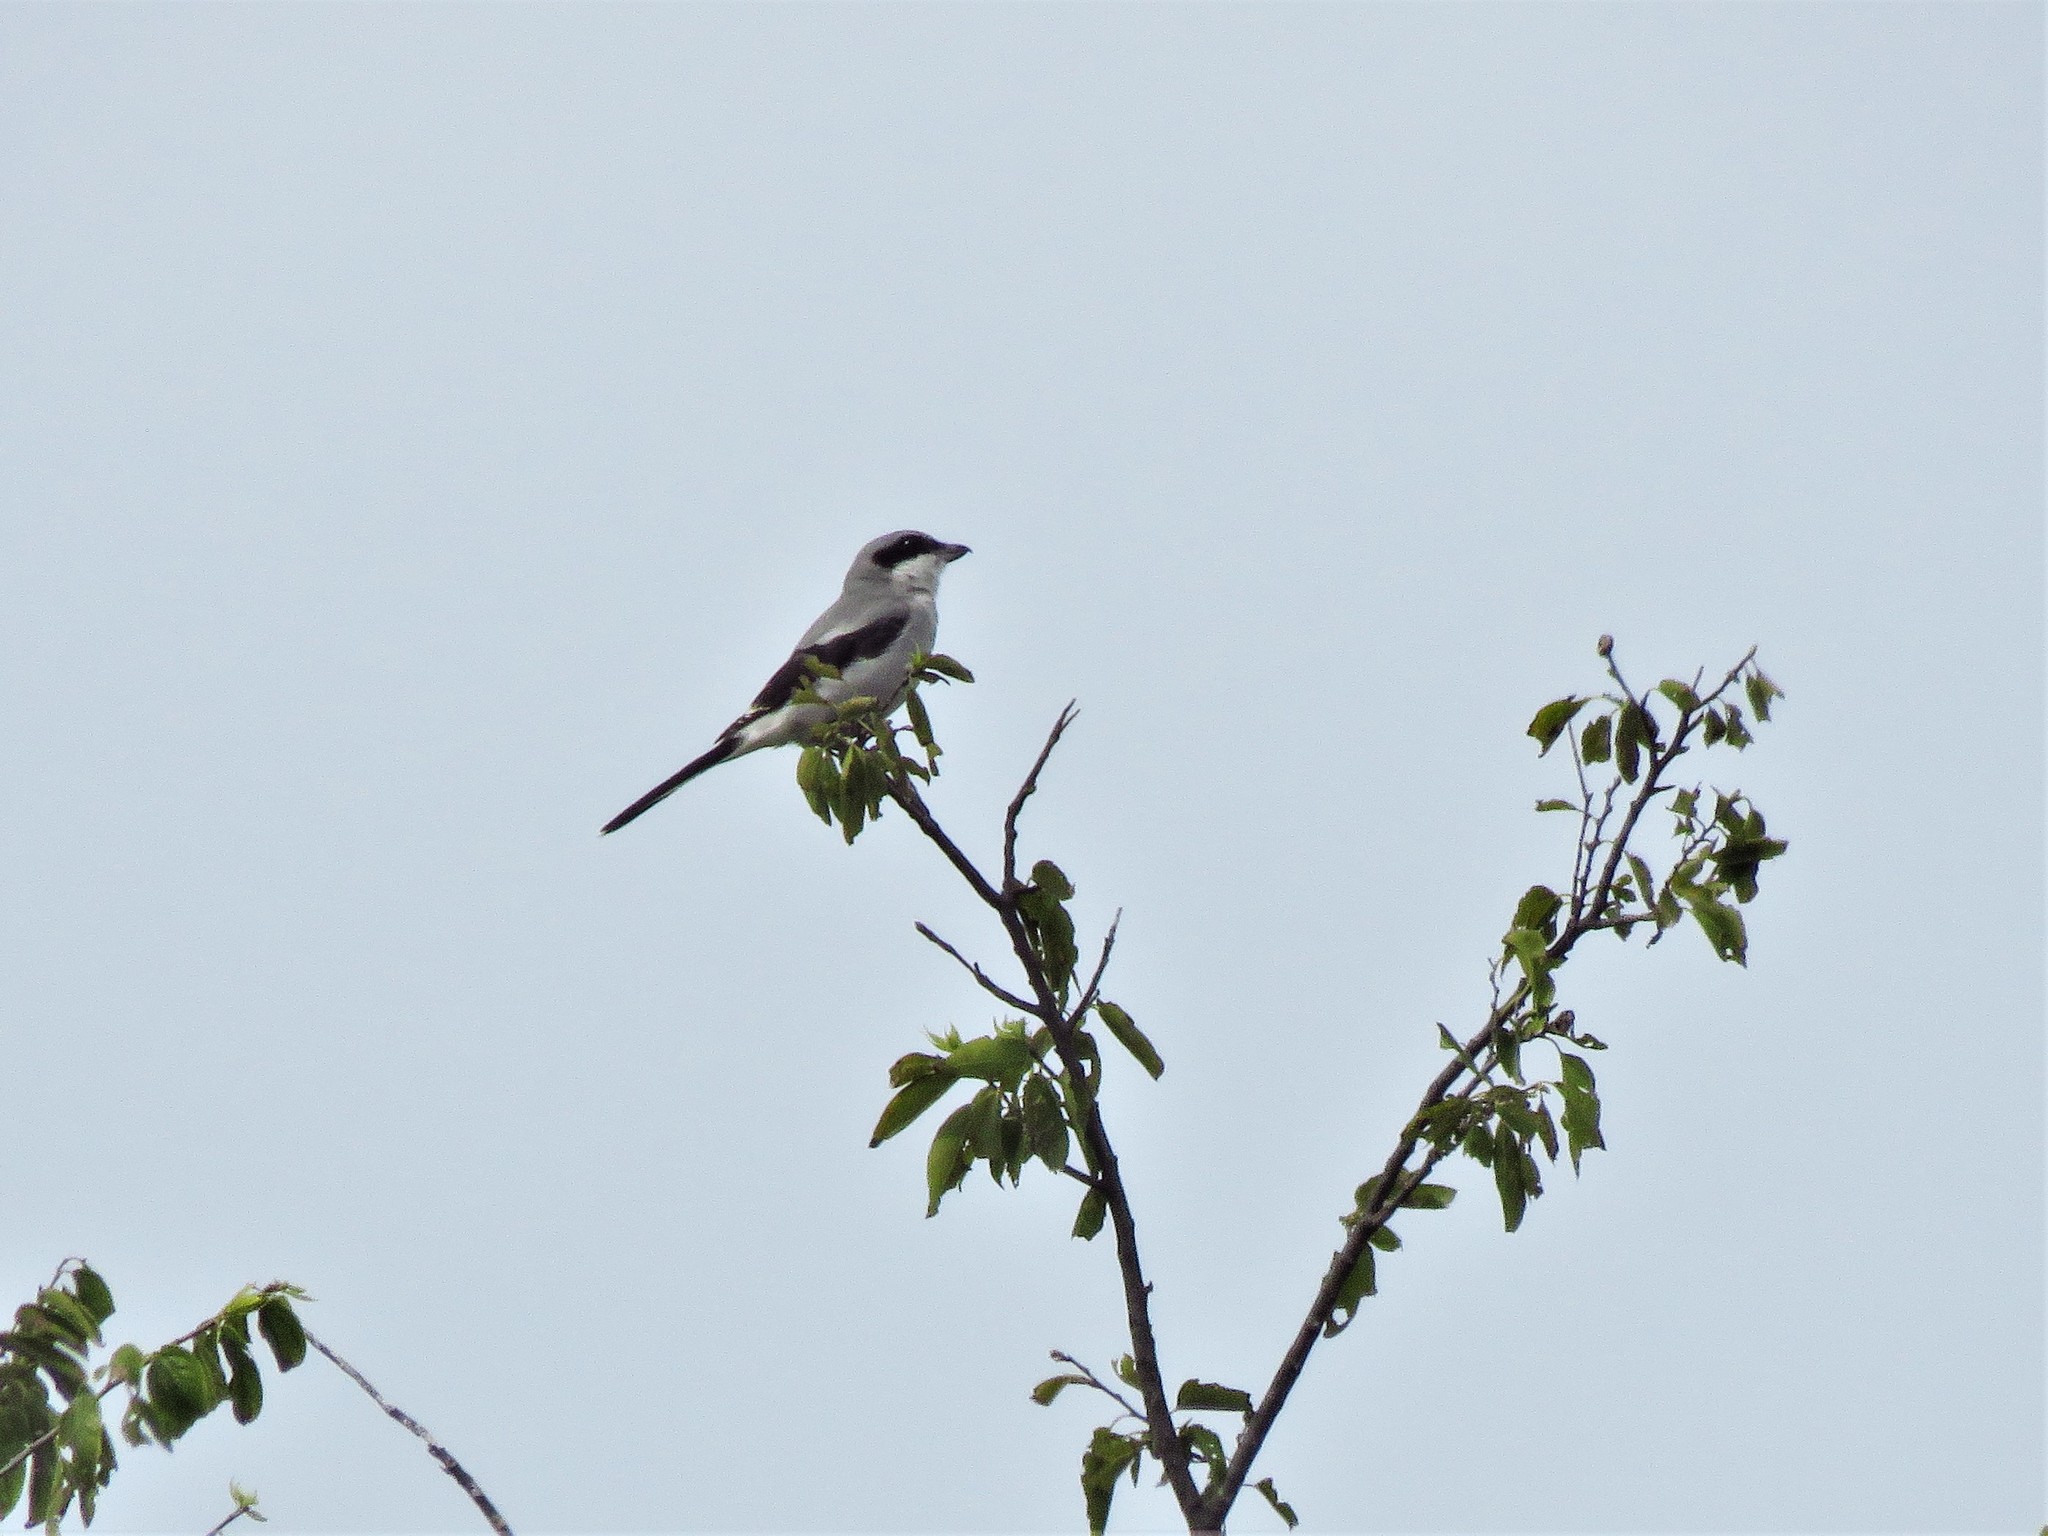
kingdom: Animalia
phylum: Chordata
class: Aves
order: Passeriformes
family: Laniidae
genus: Lanius
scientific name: Lanius ludovicianus
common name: Loggerhead shrike
